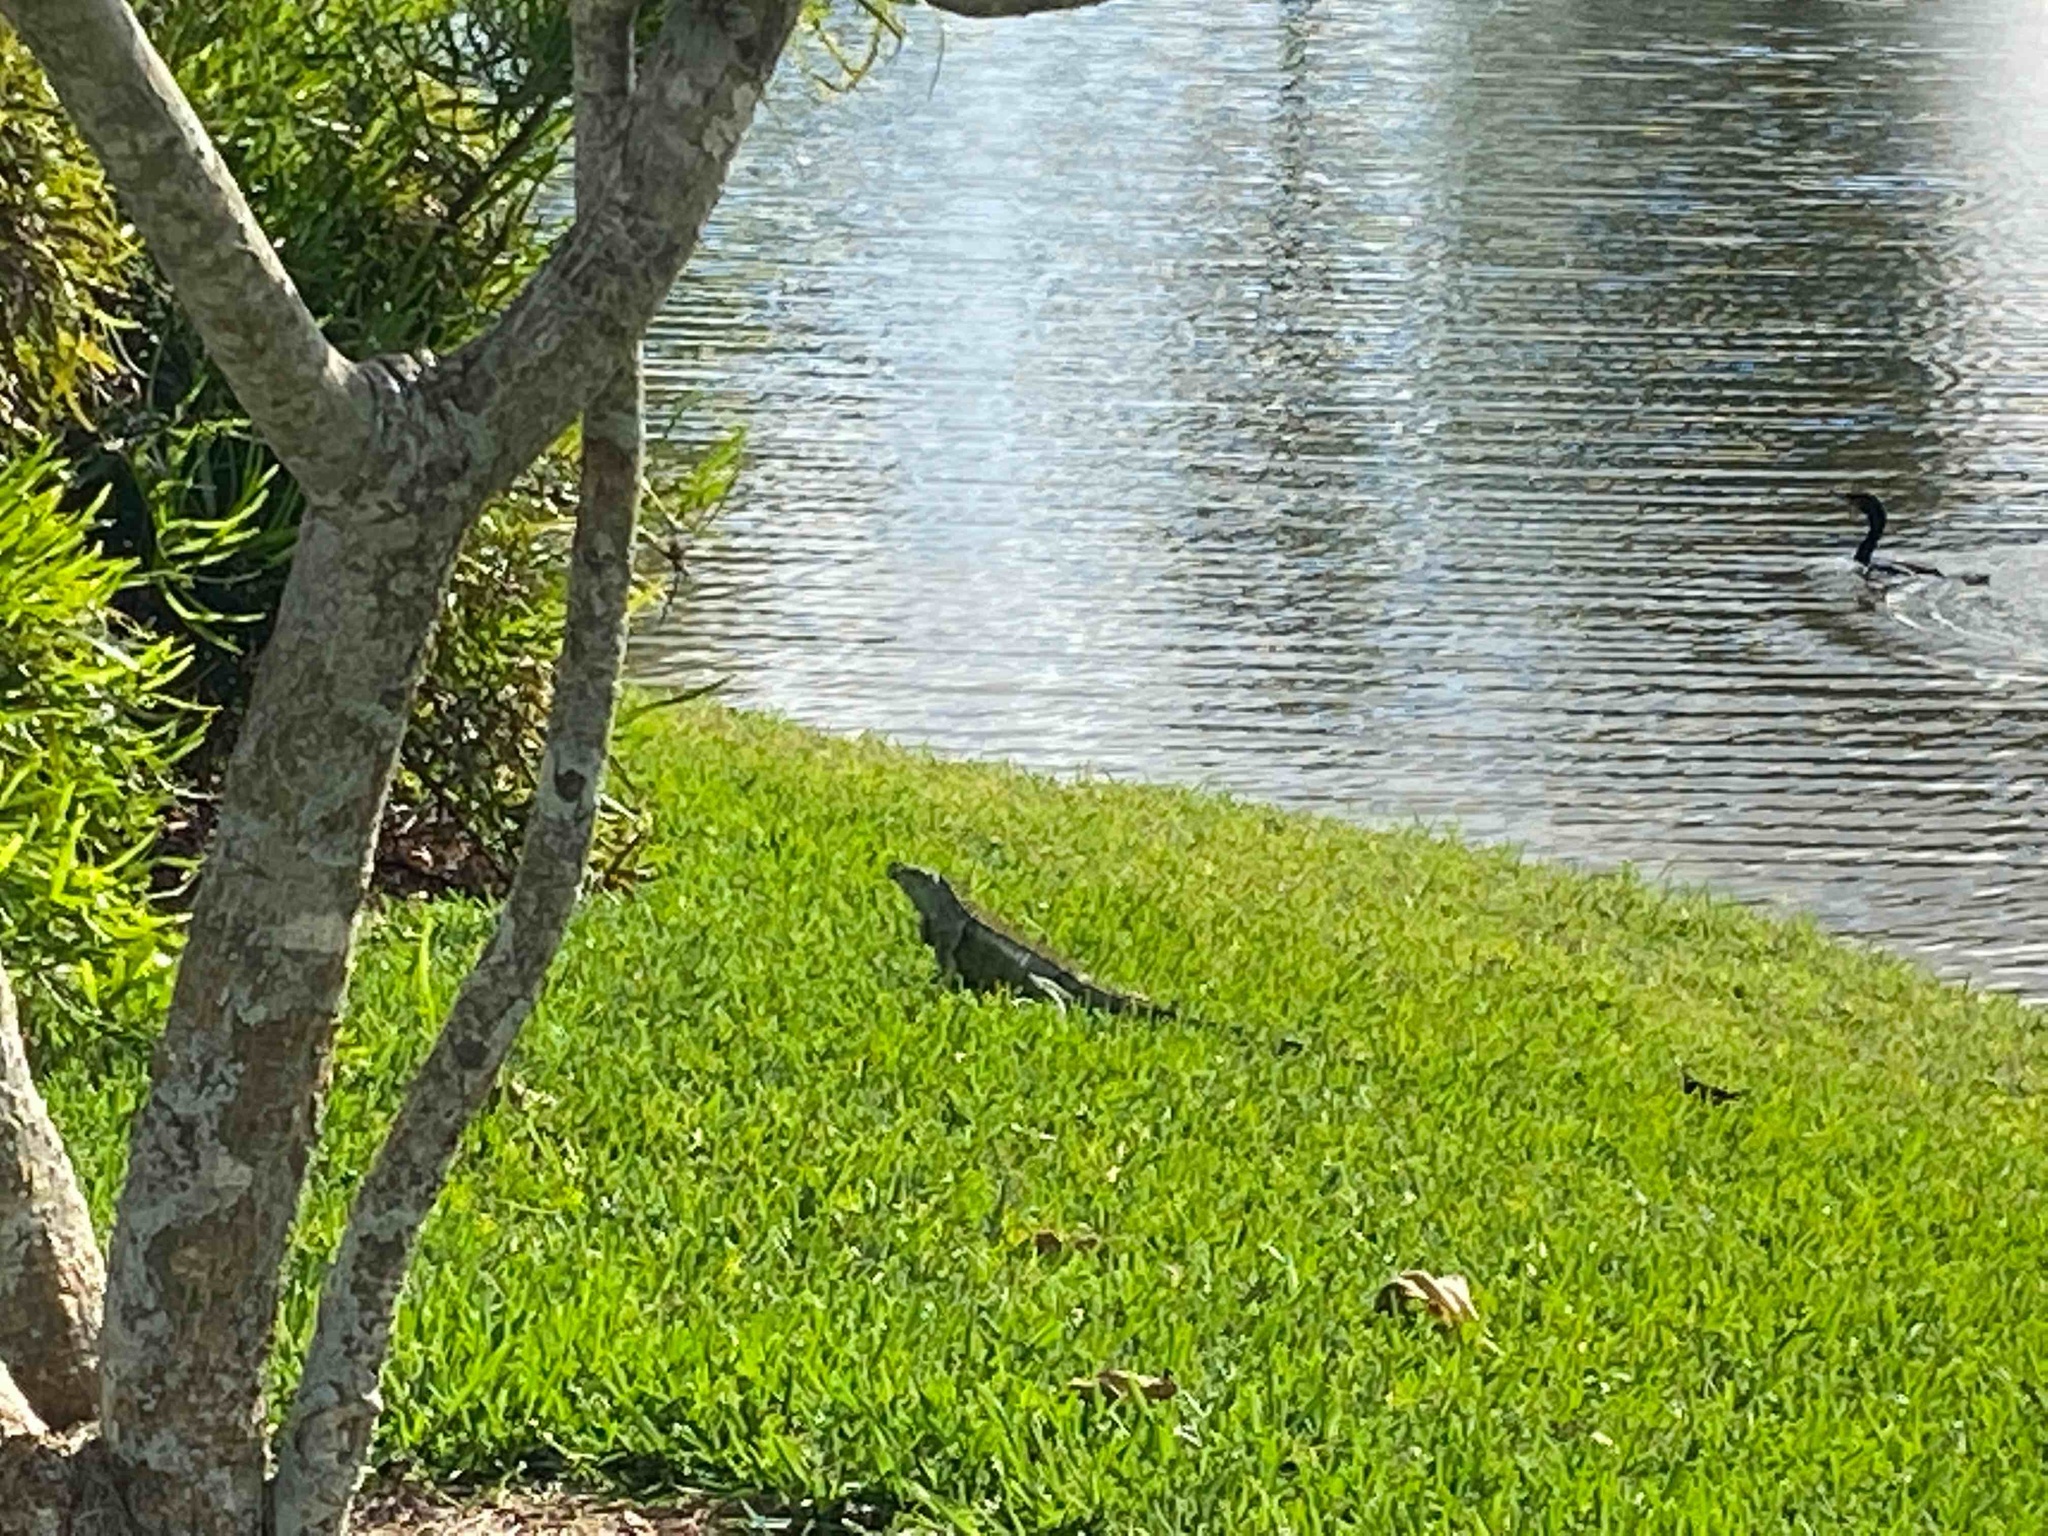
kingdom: Animalia
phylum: Chordata
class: Squamata
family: Iguanidae
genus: Iguana
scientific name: Iguana iguana
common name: Green iguana
